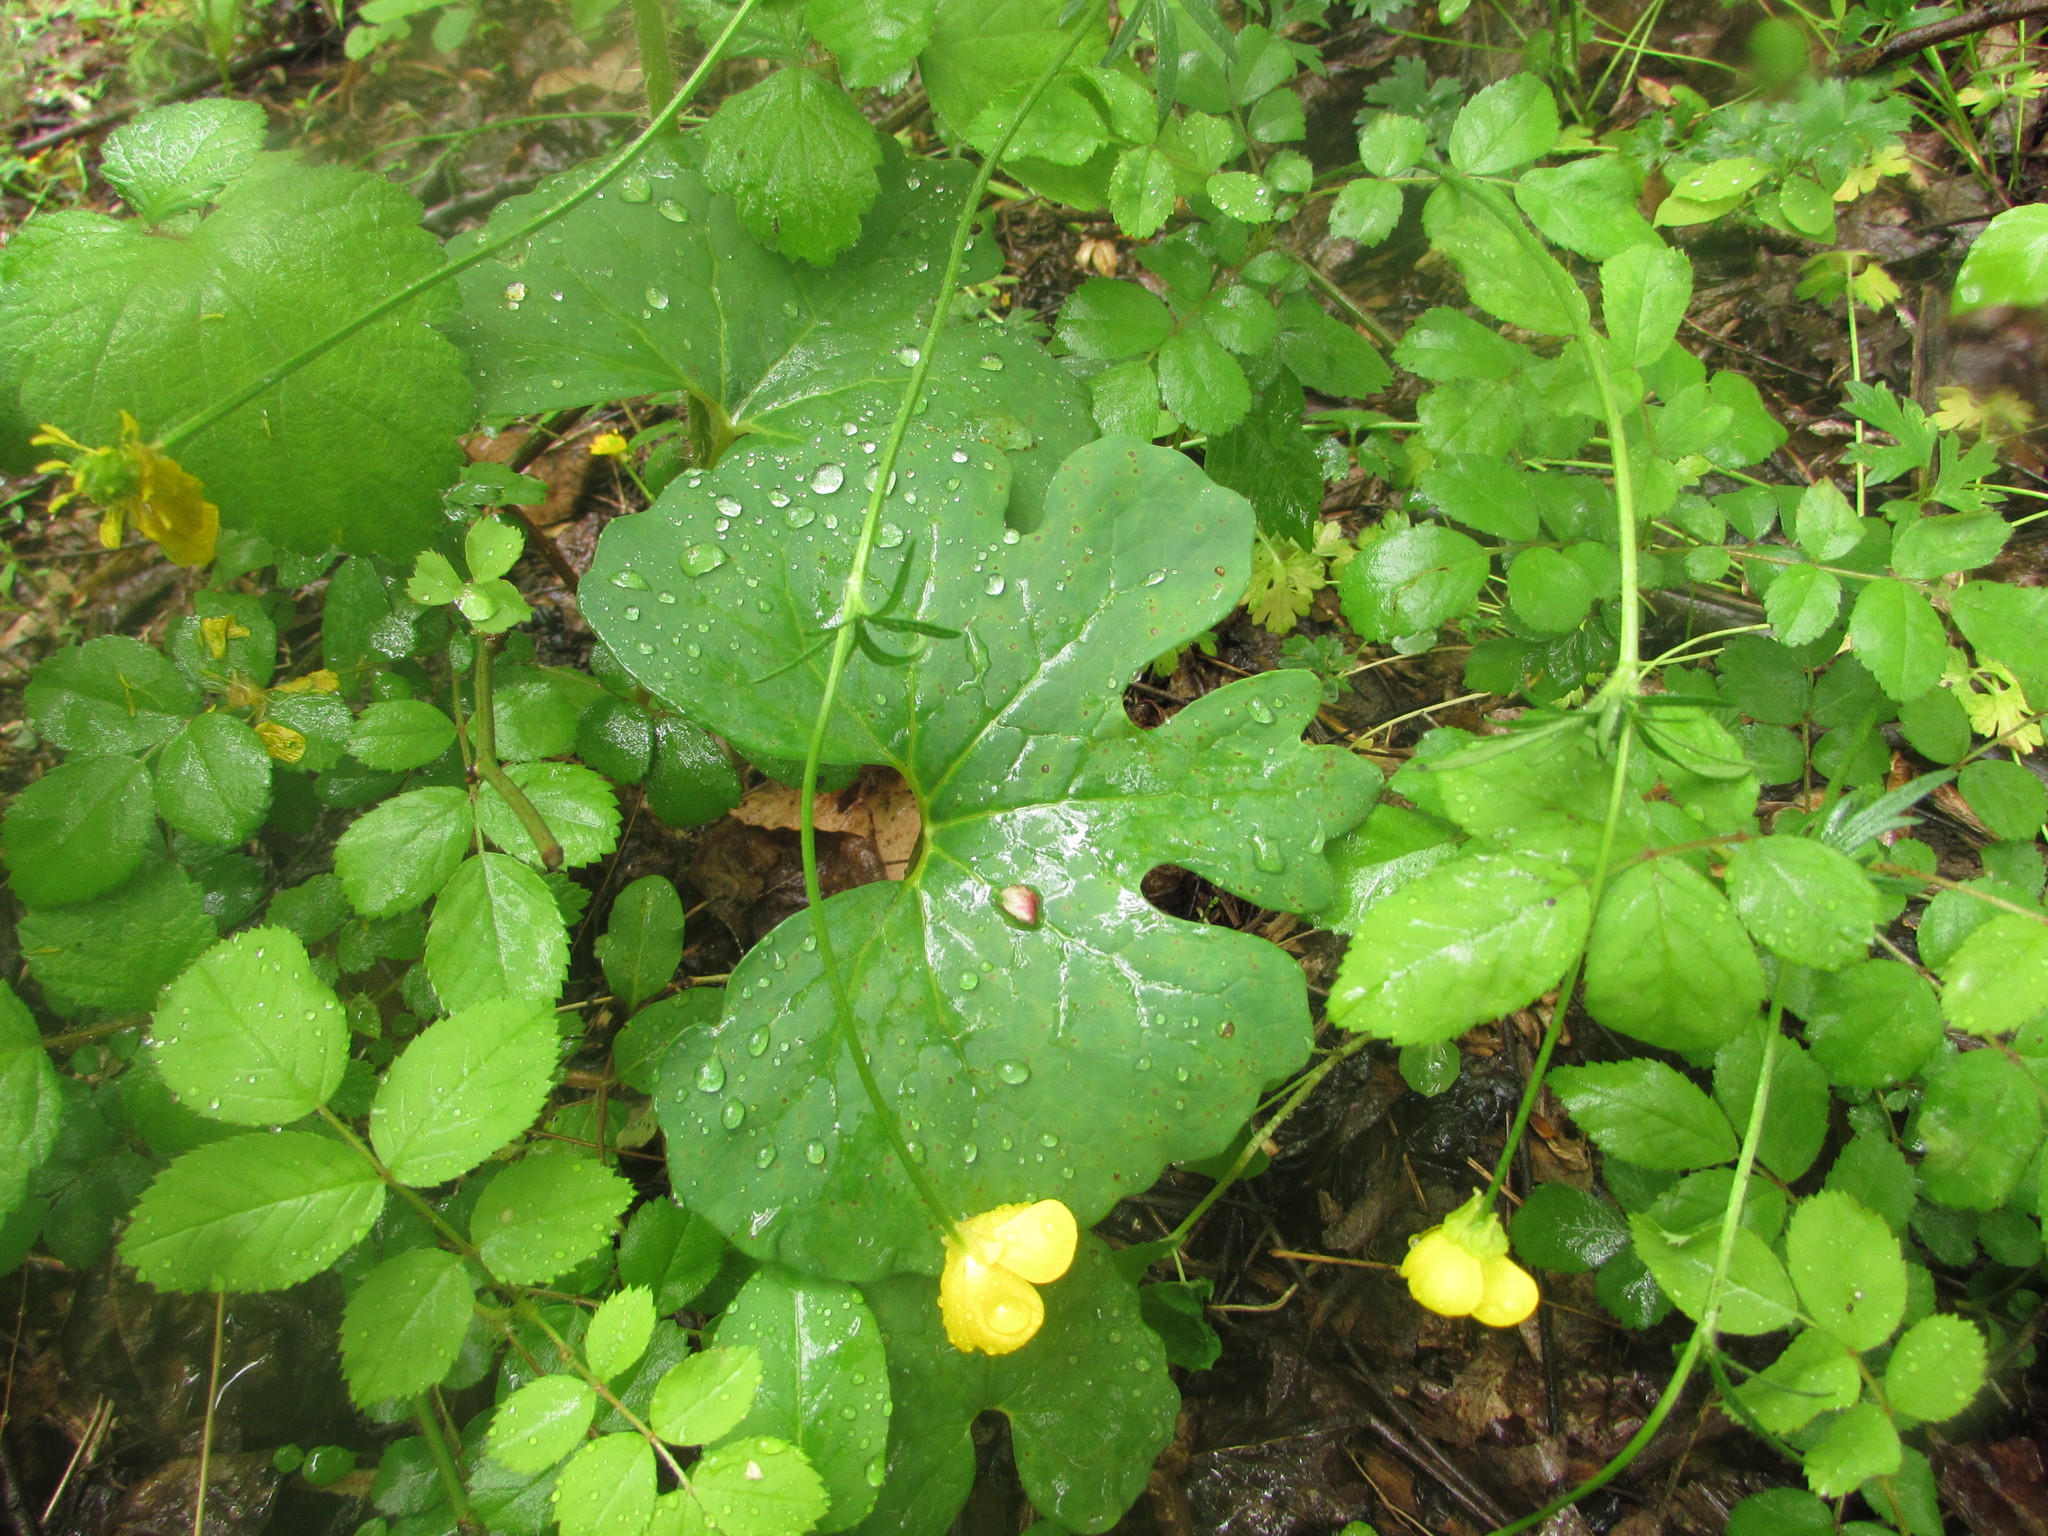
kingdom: Plantae
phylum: Tracheophyta
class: Magnoliopsida
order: Ranunculales
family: Papaveraceae
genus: Sanguinaria
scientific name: Sanguinaria canadensis
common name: Bloodroot
